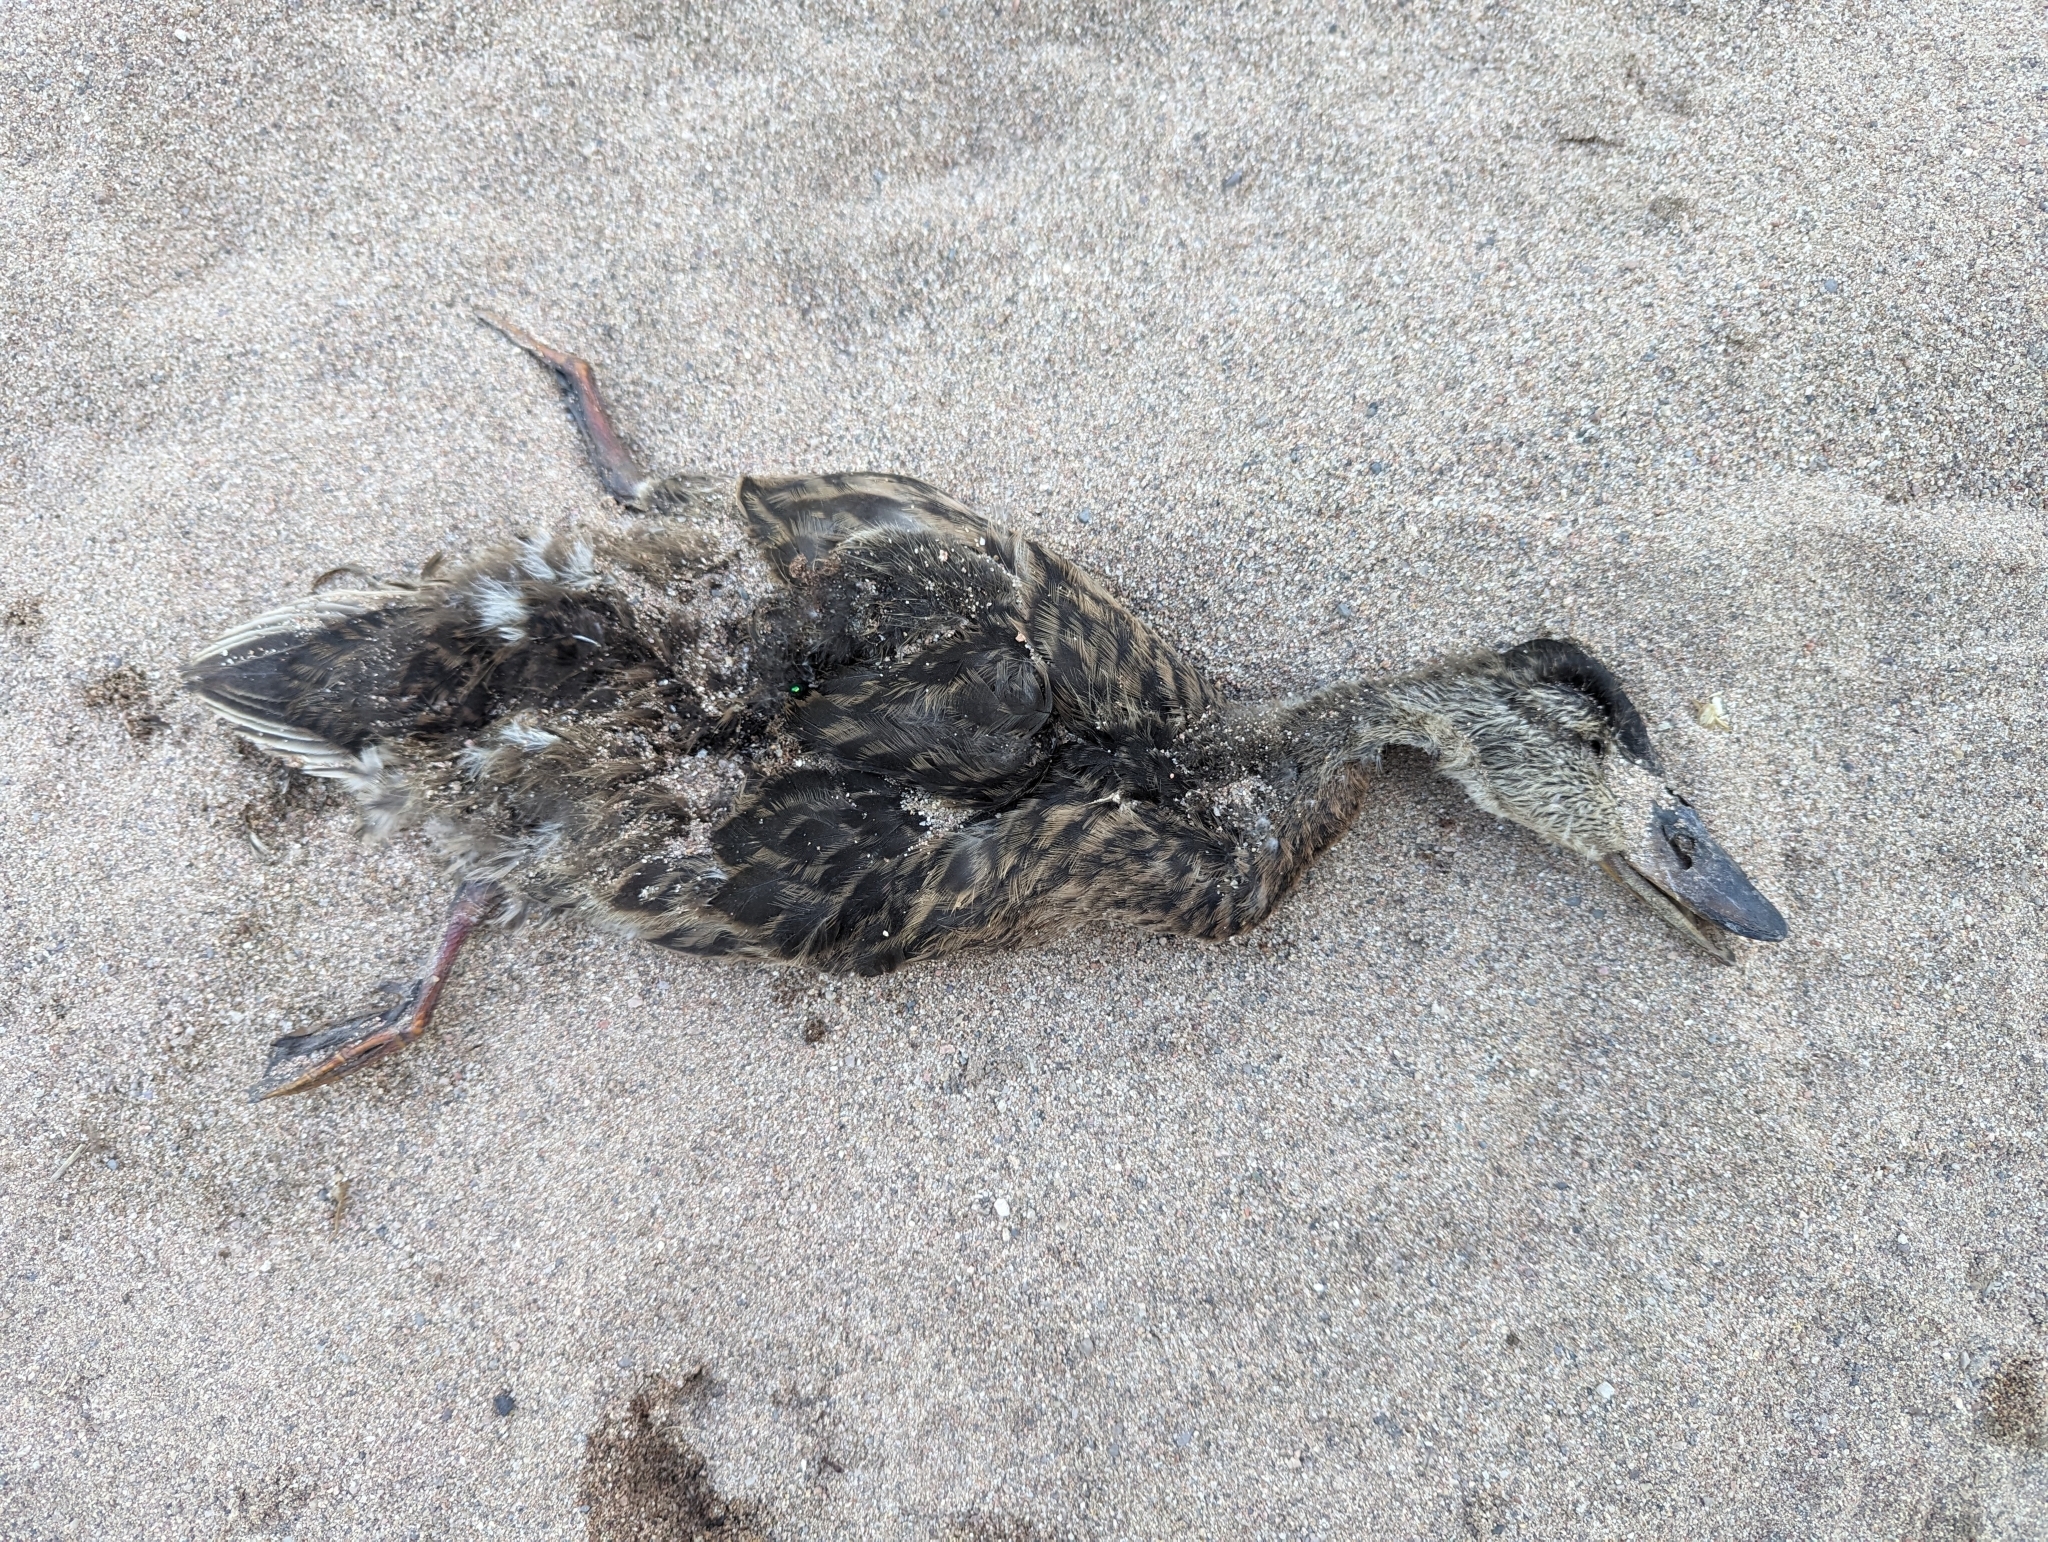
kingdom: Animalia
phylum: Chordata
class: Aves
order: Anseriformes
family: Anatidae
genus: Anas
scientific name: Anas platyrhynchos
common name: Mallard
